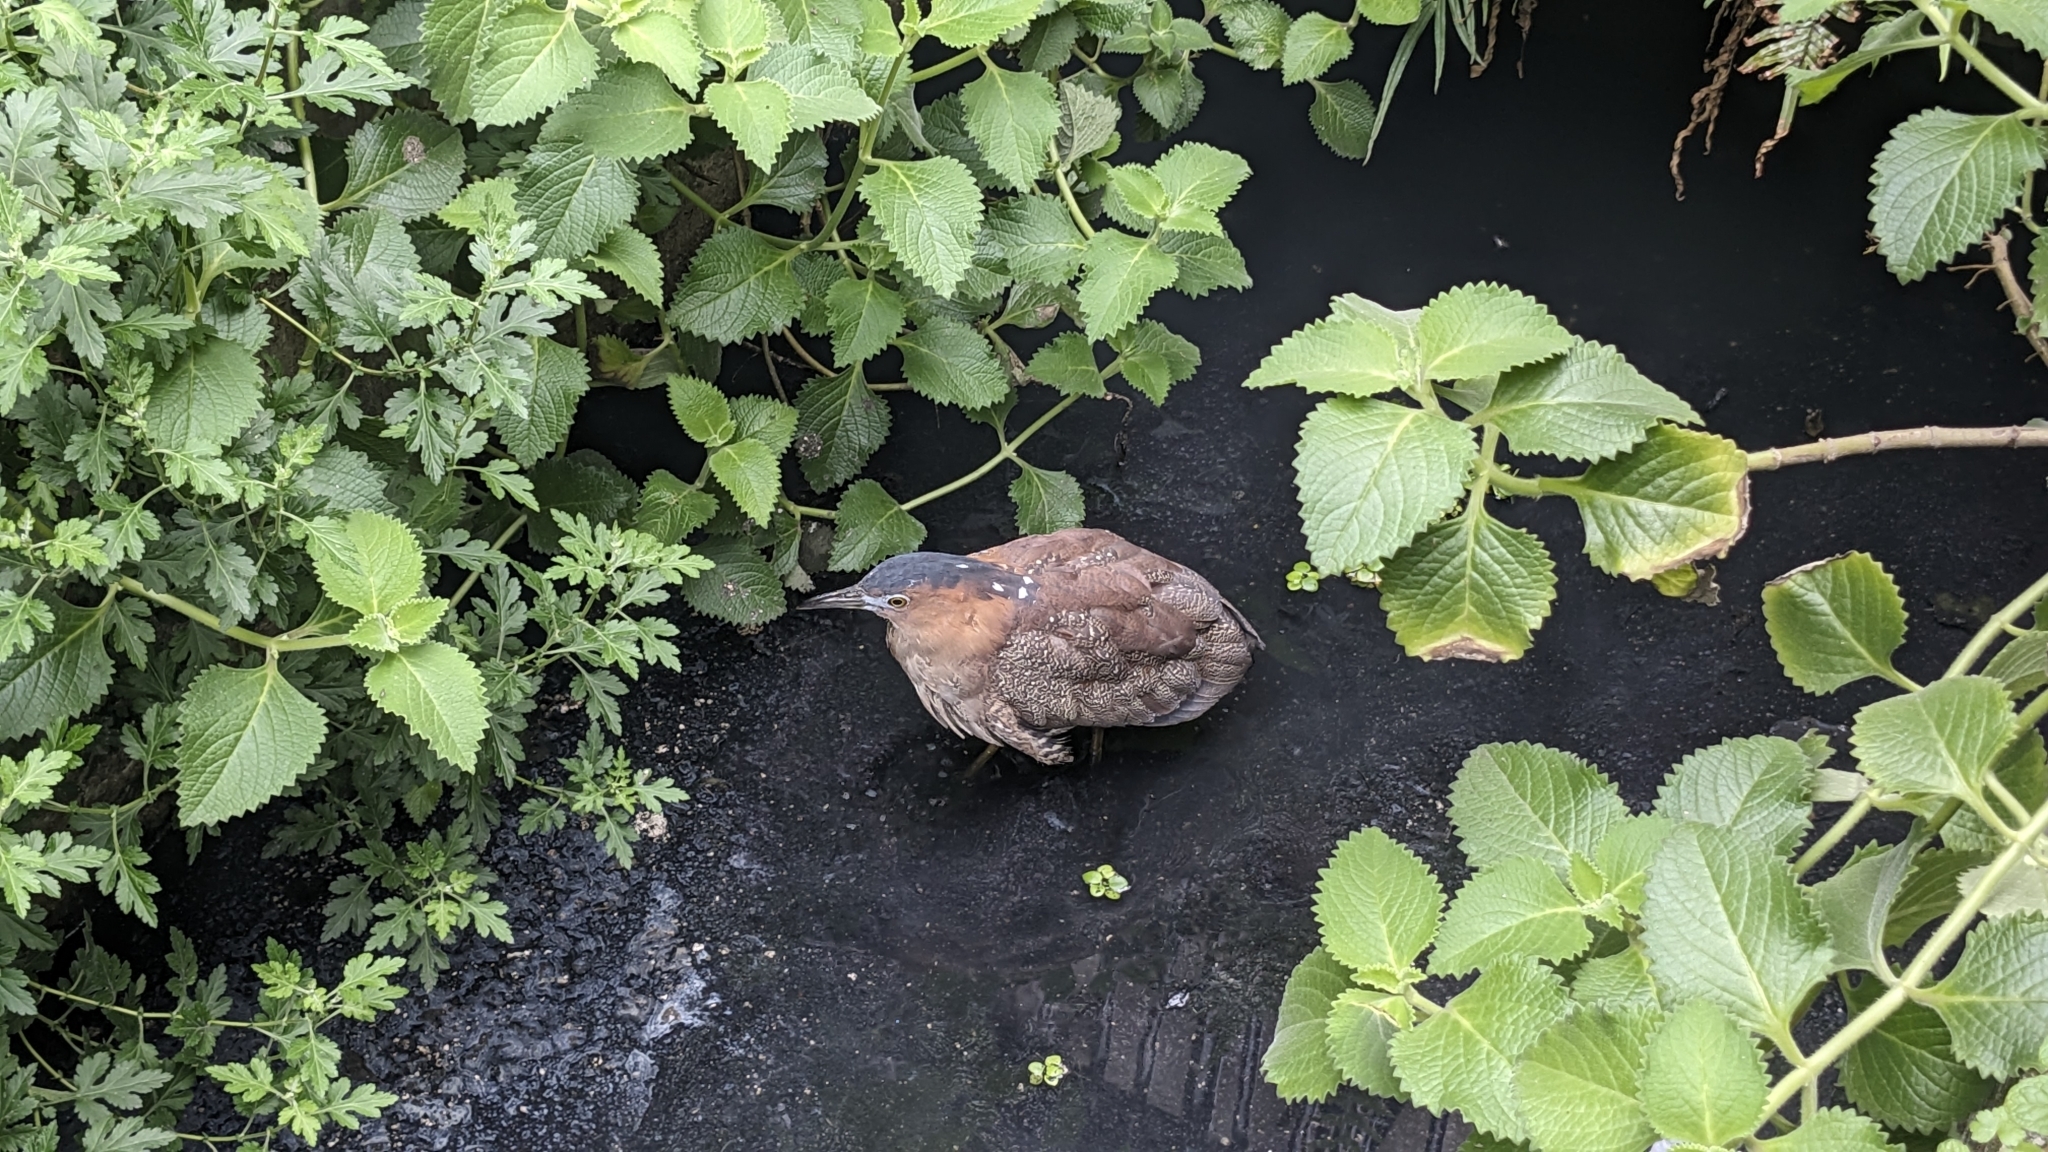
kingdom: Animalia
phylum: Chordata
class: Aves
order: Pelecaniformes
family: Ardeidae
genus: Gorsachius
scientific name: Gorsachius melanolophus
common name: Malayan night heron
